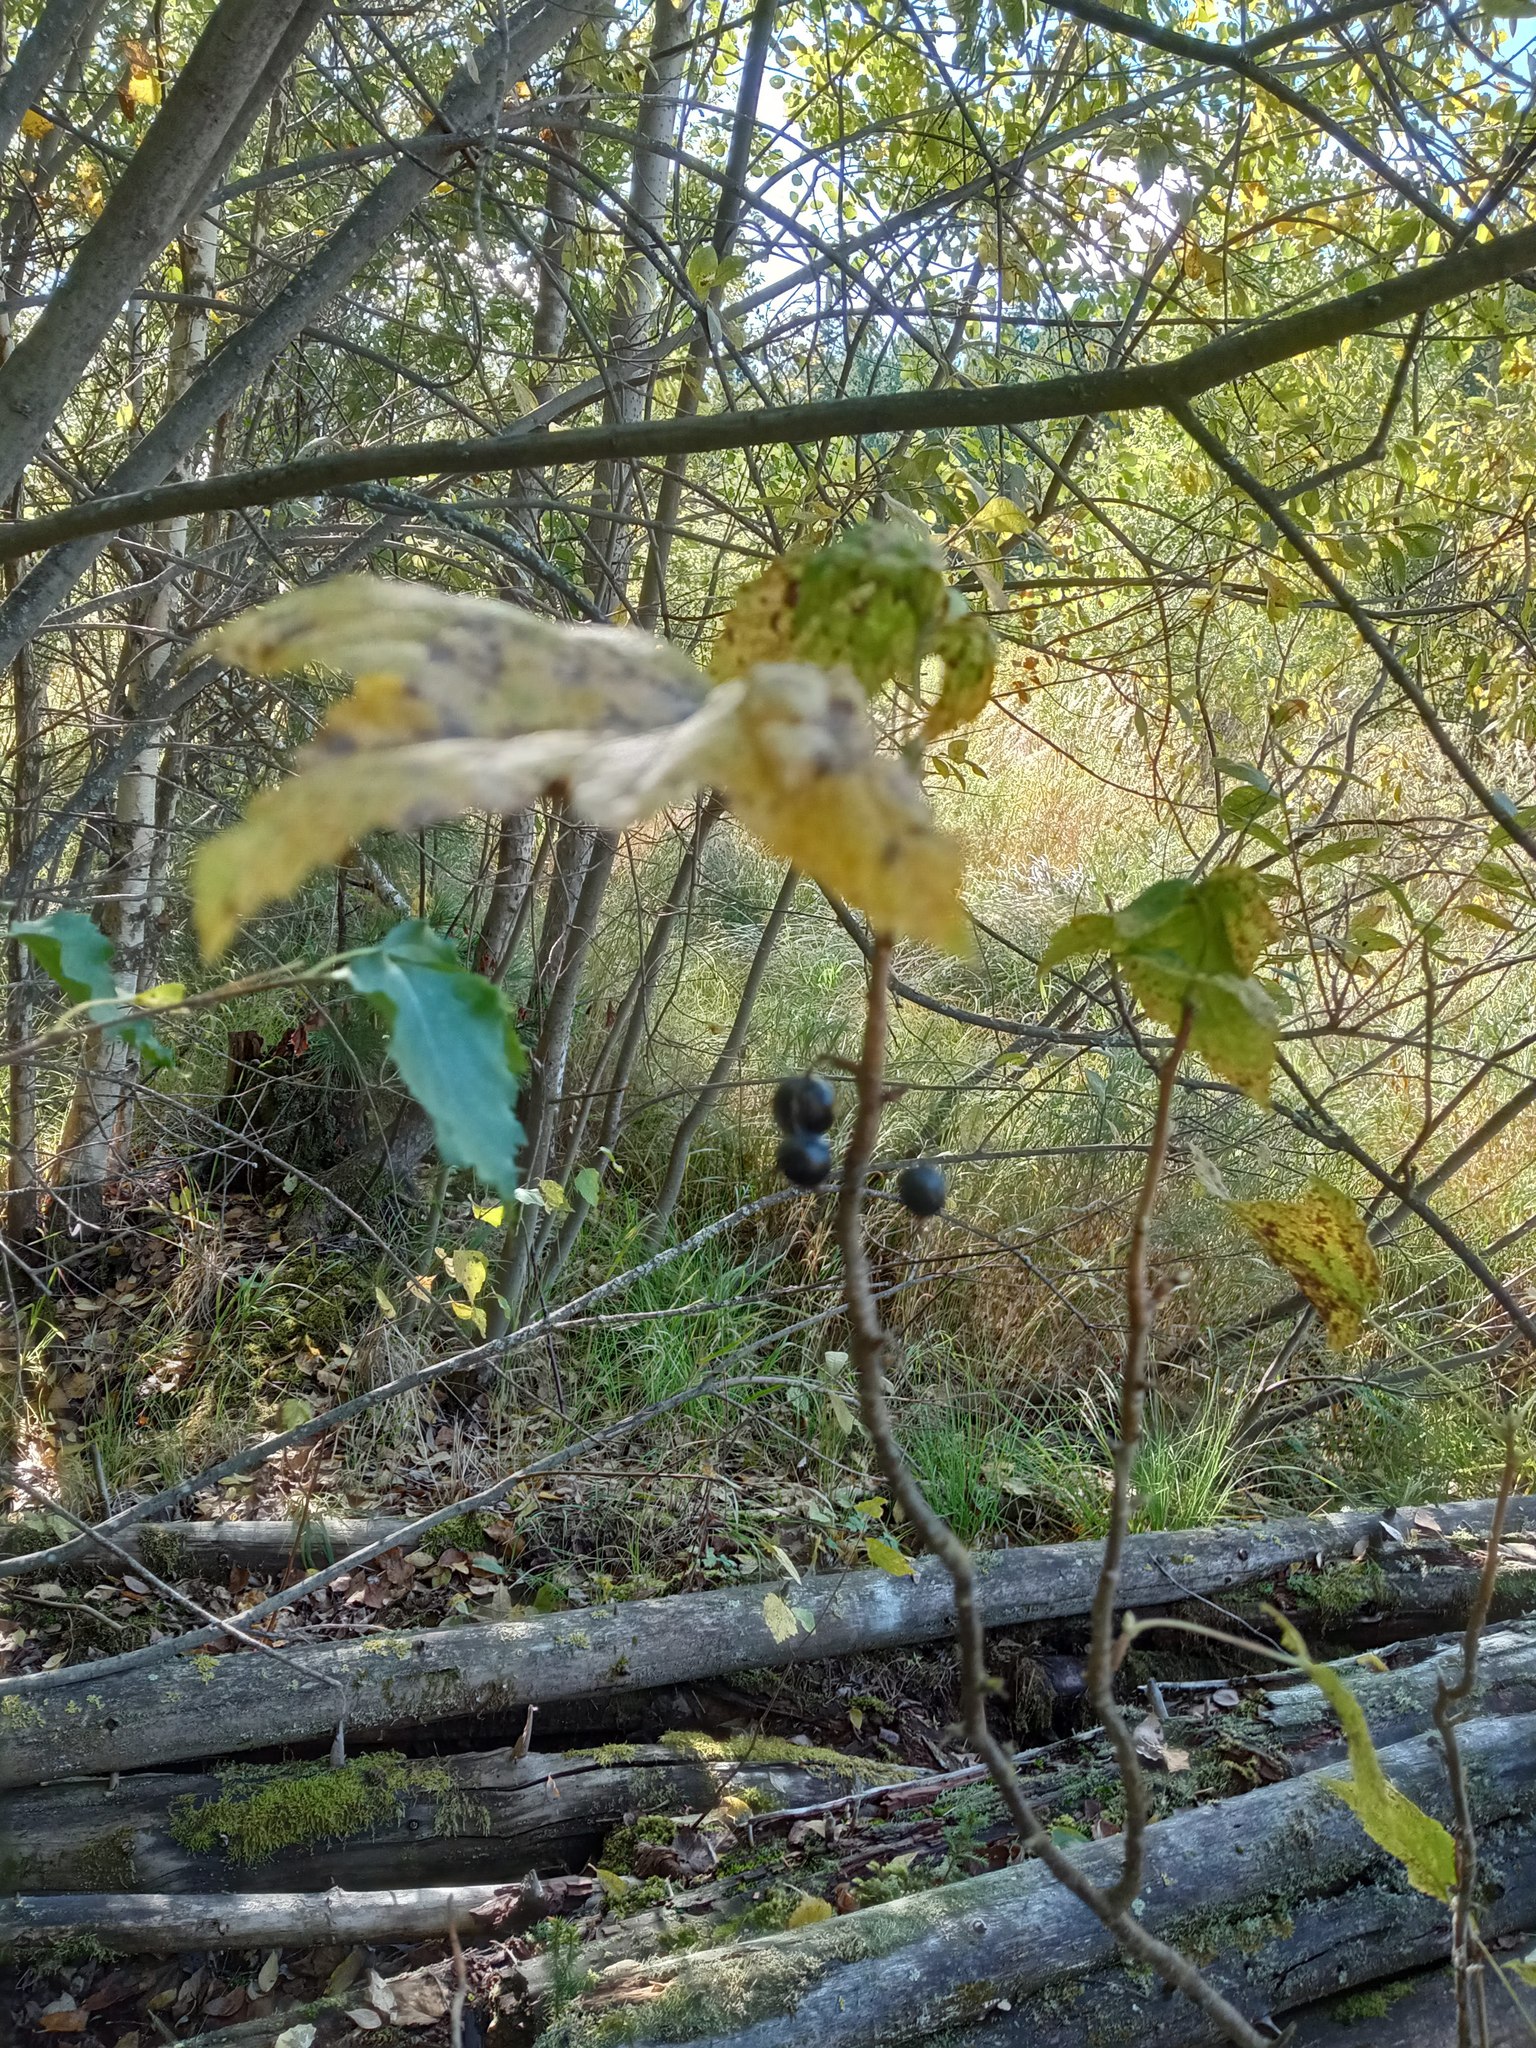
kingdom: Plantae
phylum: Tracheophyta
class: Magnoliopsida
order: Saxifragales
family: Grossulariaceae
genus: Ribes
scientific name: Ribes nigrum
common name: Black currant
